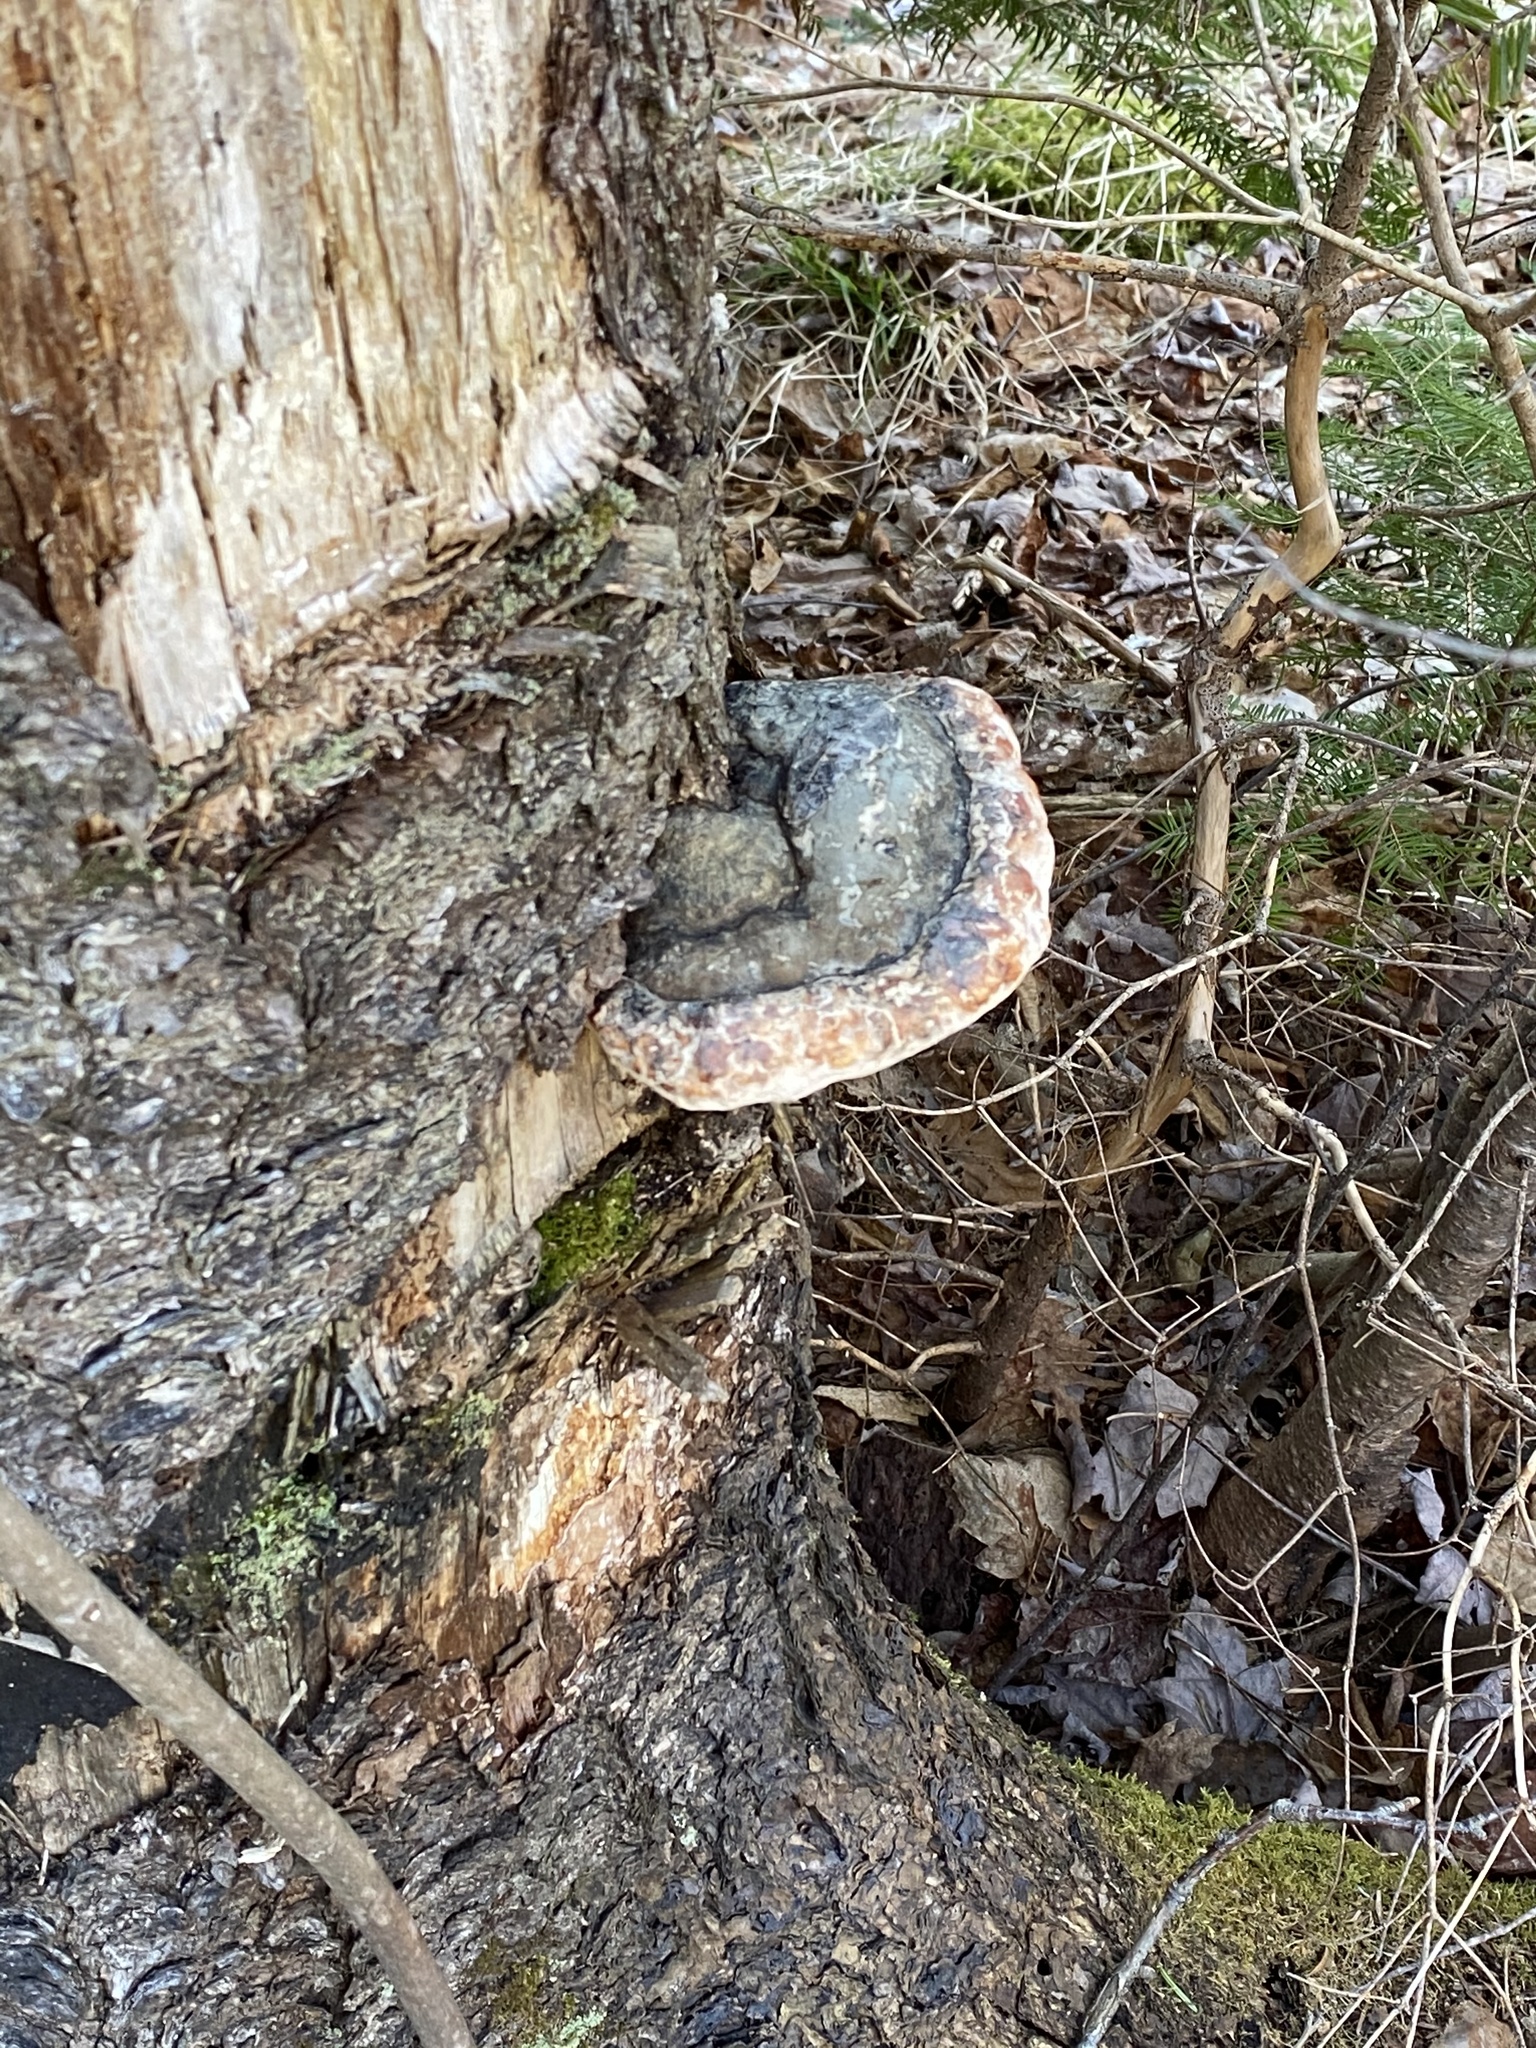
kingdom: Fungi
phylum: Basidiomycota
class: Agaricomycetes
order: Polyporales
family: Fomitopsidaceae
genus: Fomitopsis
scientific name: Fomitopsis mounceae
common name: Northern red belt
